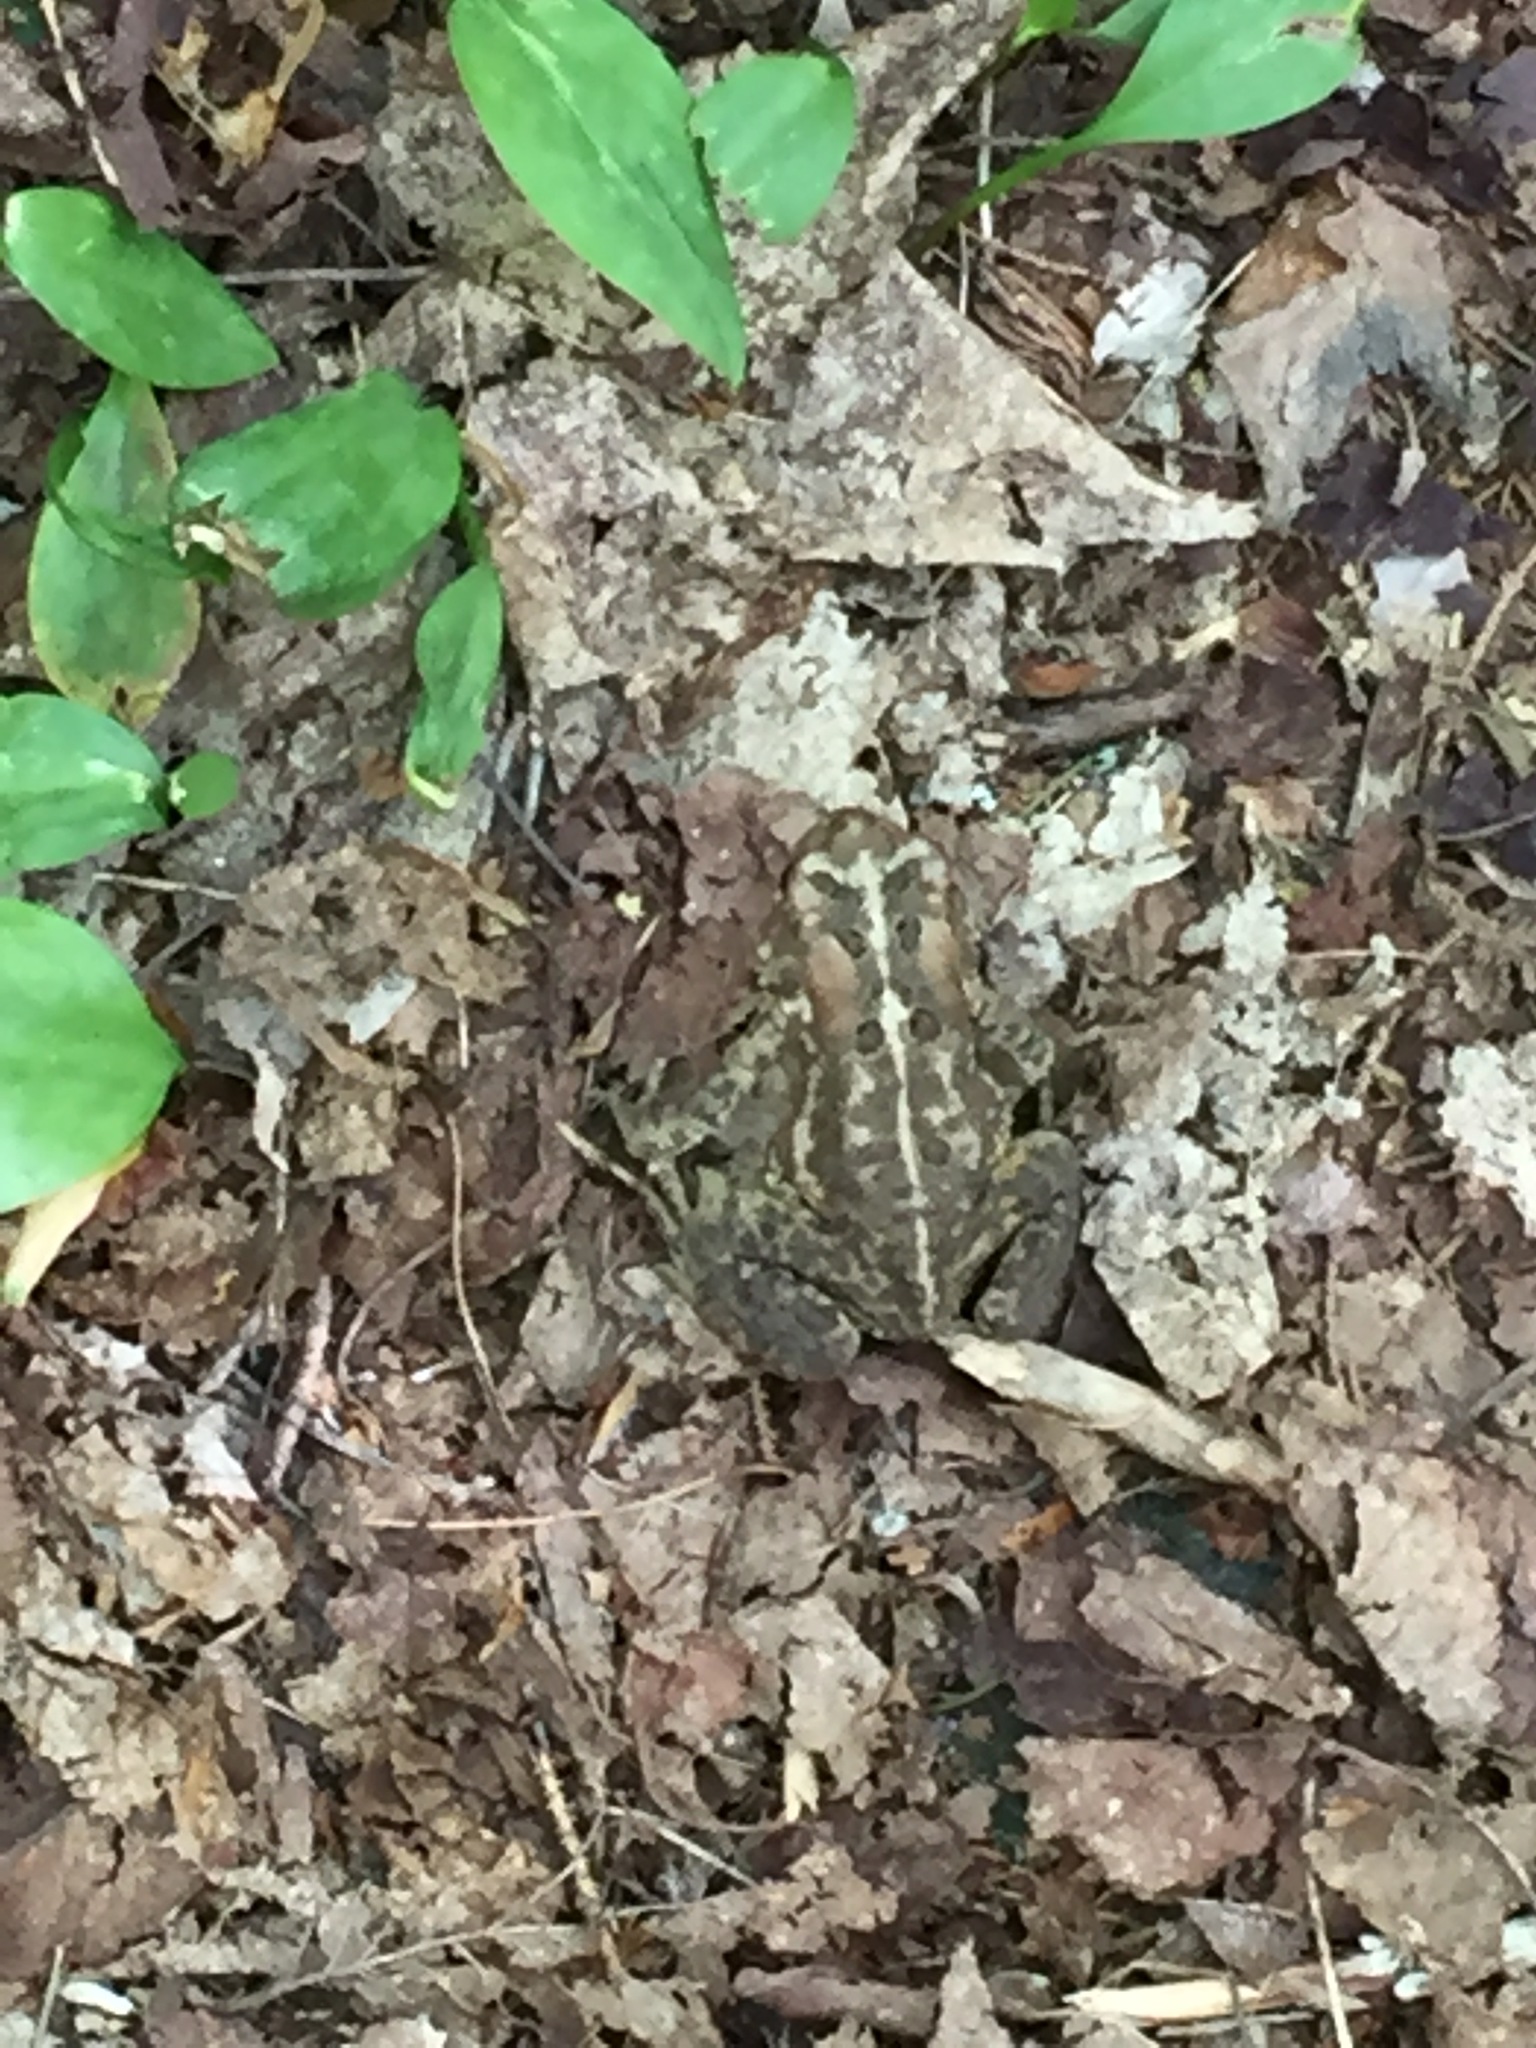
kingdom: Animalia
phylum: Chordata
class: Amphibia
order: Anura
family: Bufonidae
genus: Anaxyrus
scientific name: Anaxyrus americanus
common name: American toad
